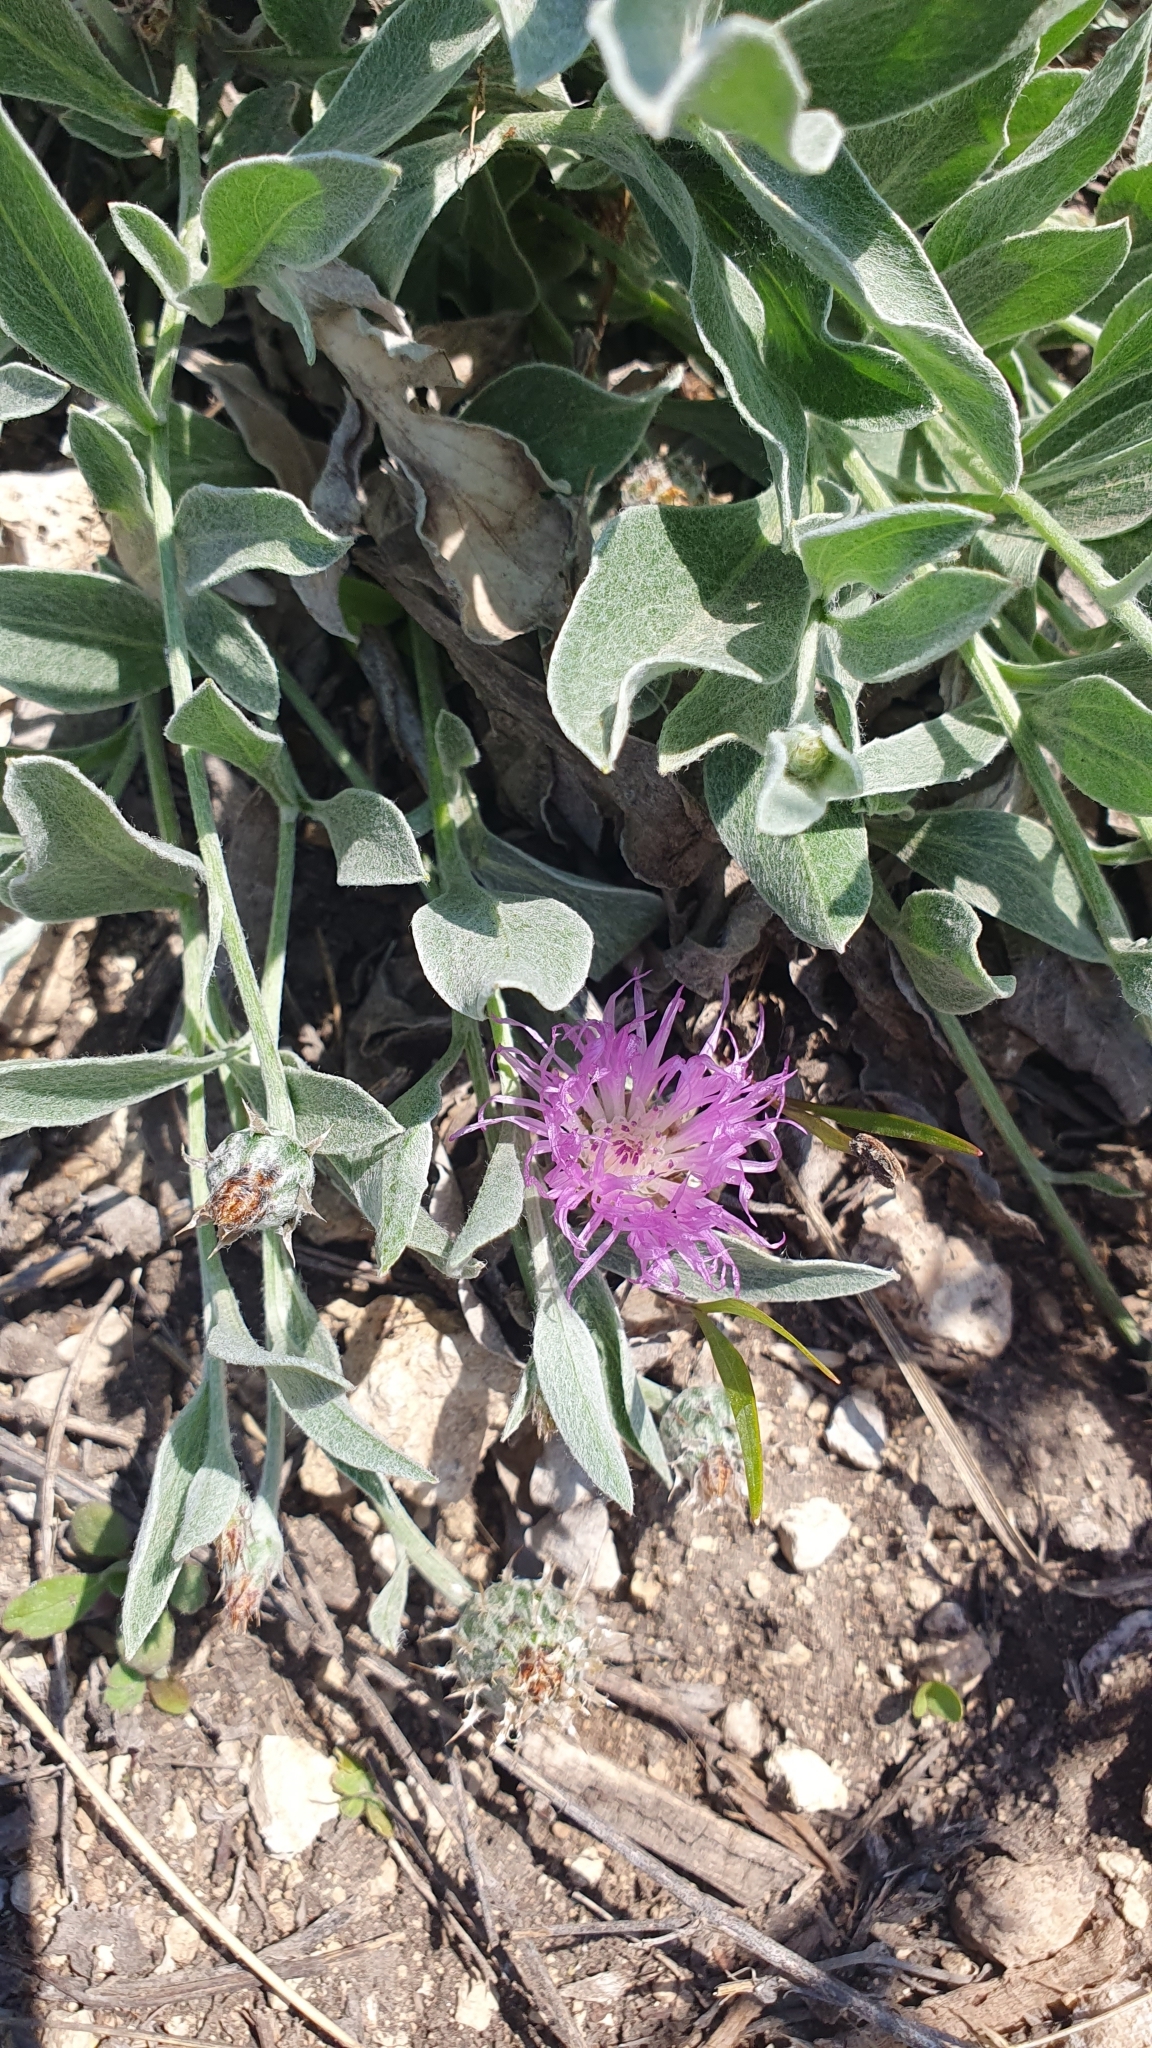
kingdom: Plantae
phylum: Tracheophyta
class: Magnoliopsida
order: Asterales
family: Asteraceae
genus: Psephellus
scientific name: Psephellus marschallianus
